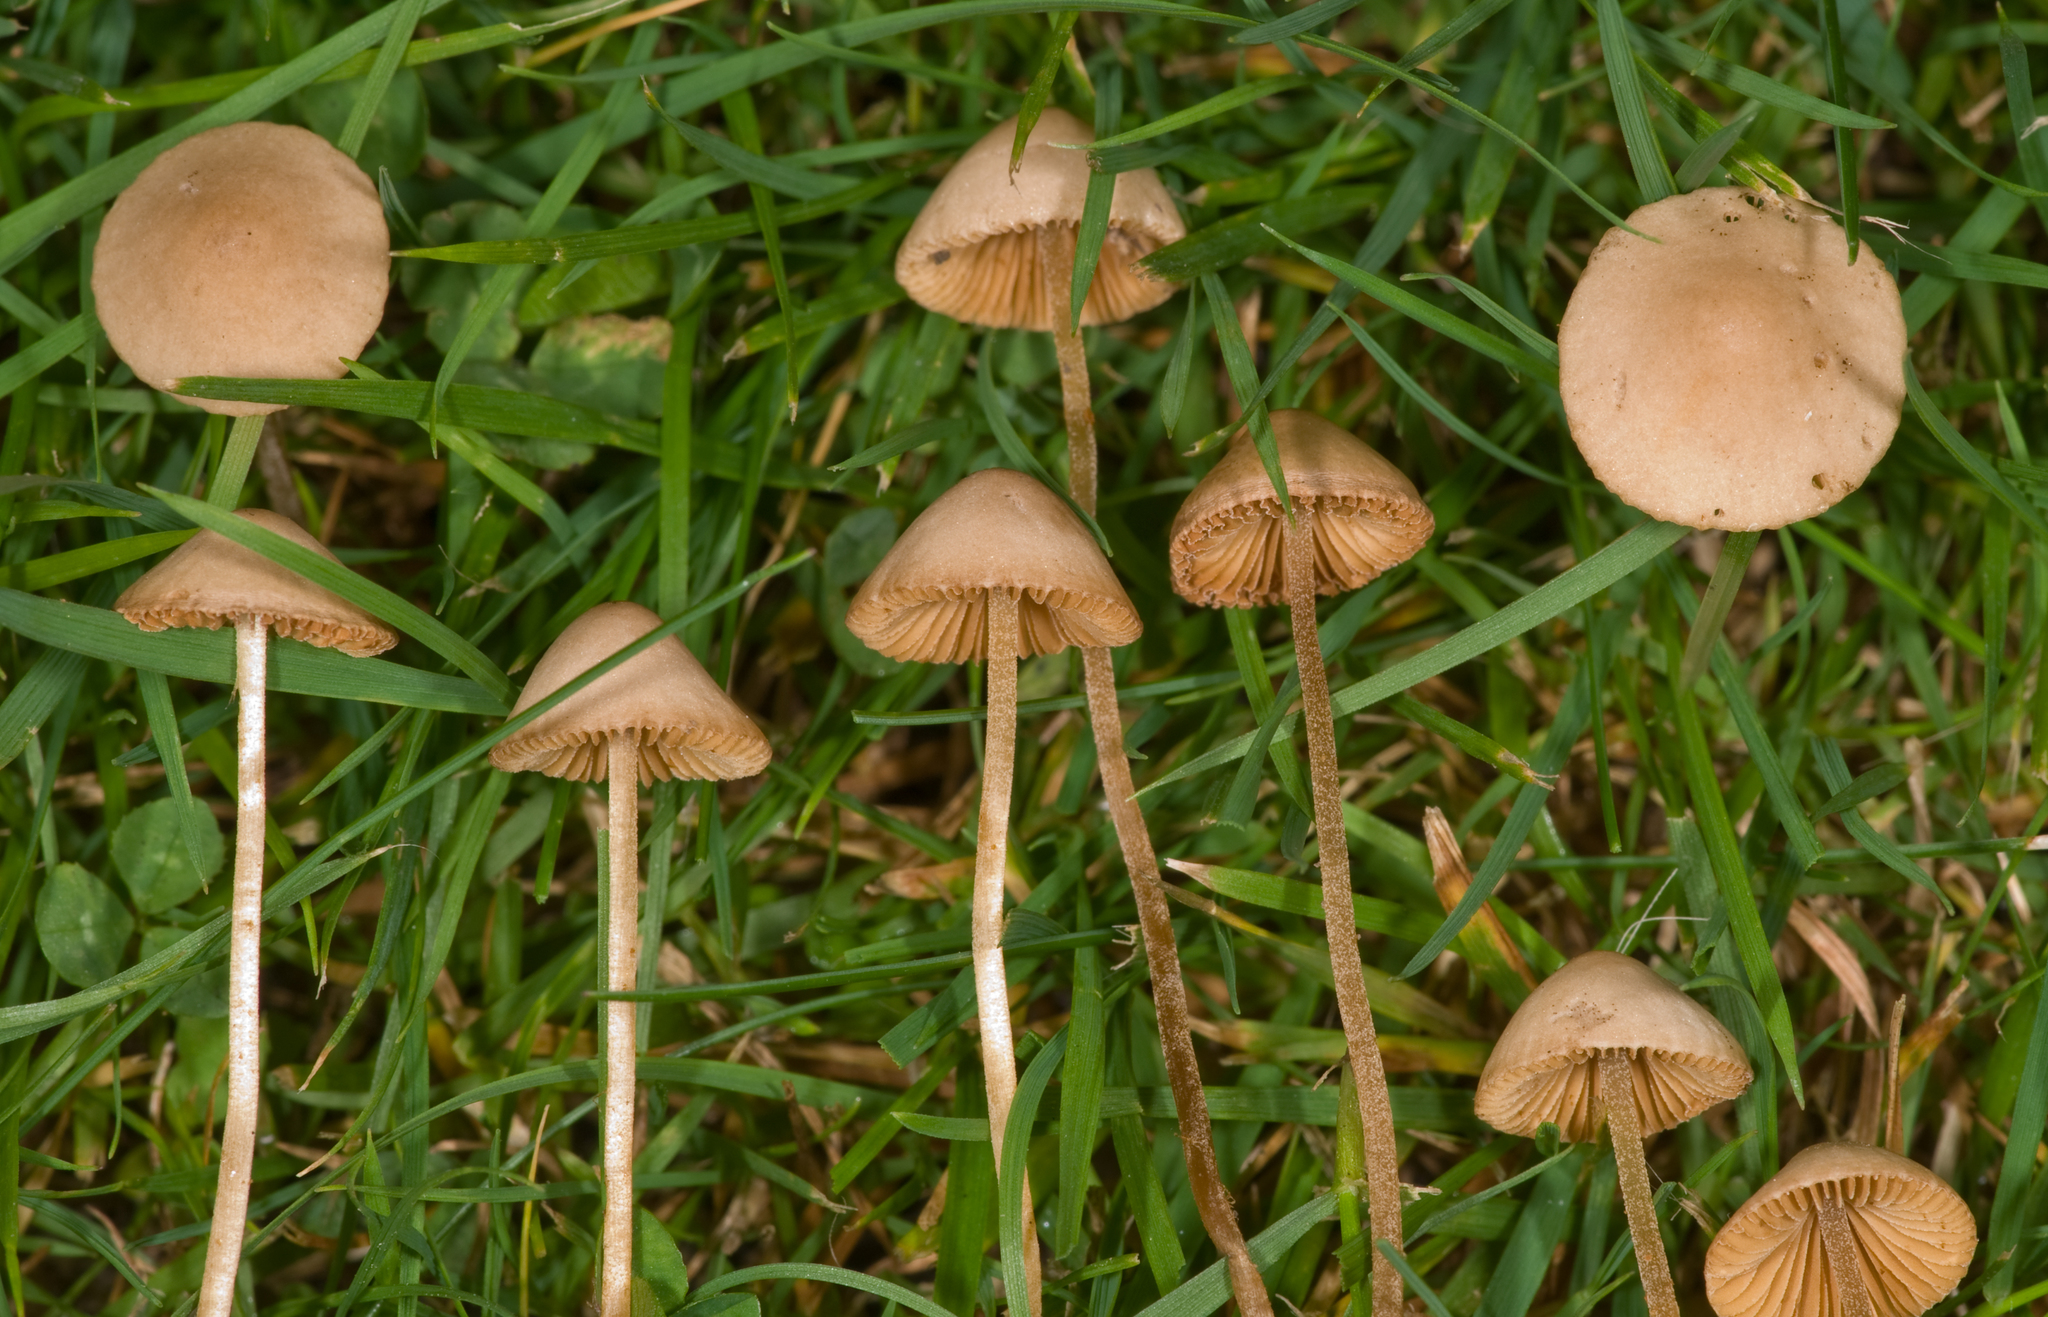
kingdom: Fungi
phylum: Basidiomycota
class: Agaricomycetes
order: Agaricales
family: Bolbitiaceae
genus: Conocybe
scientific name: Conocybe rickeniana
